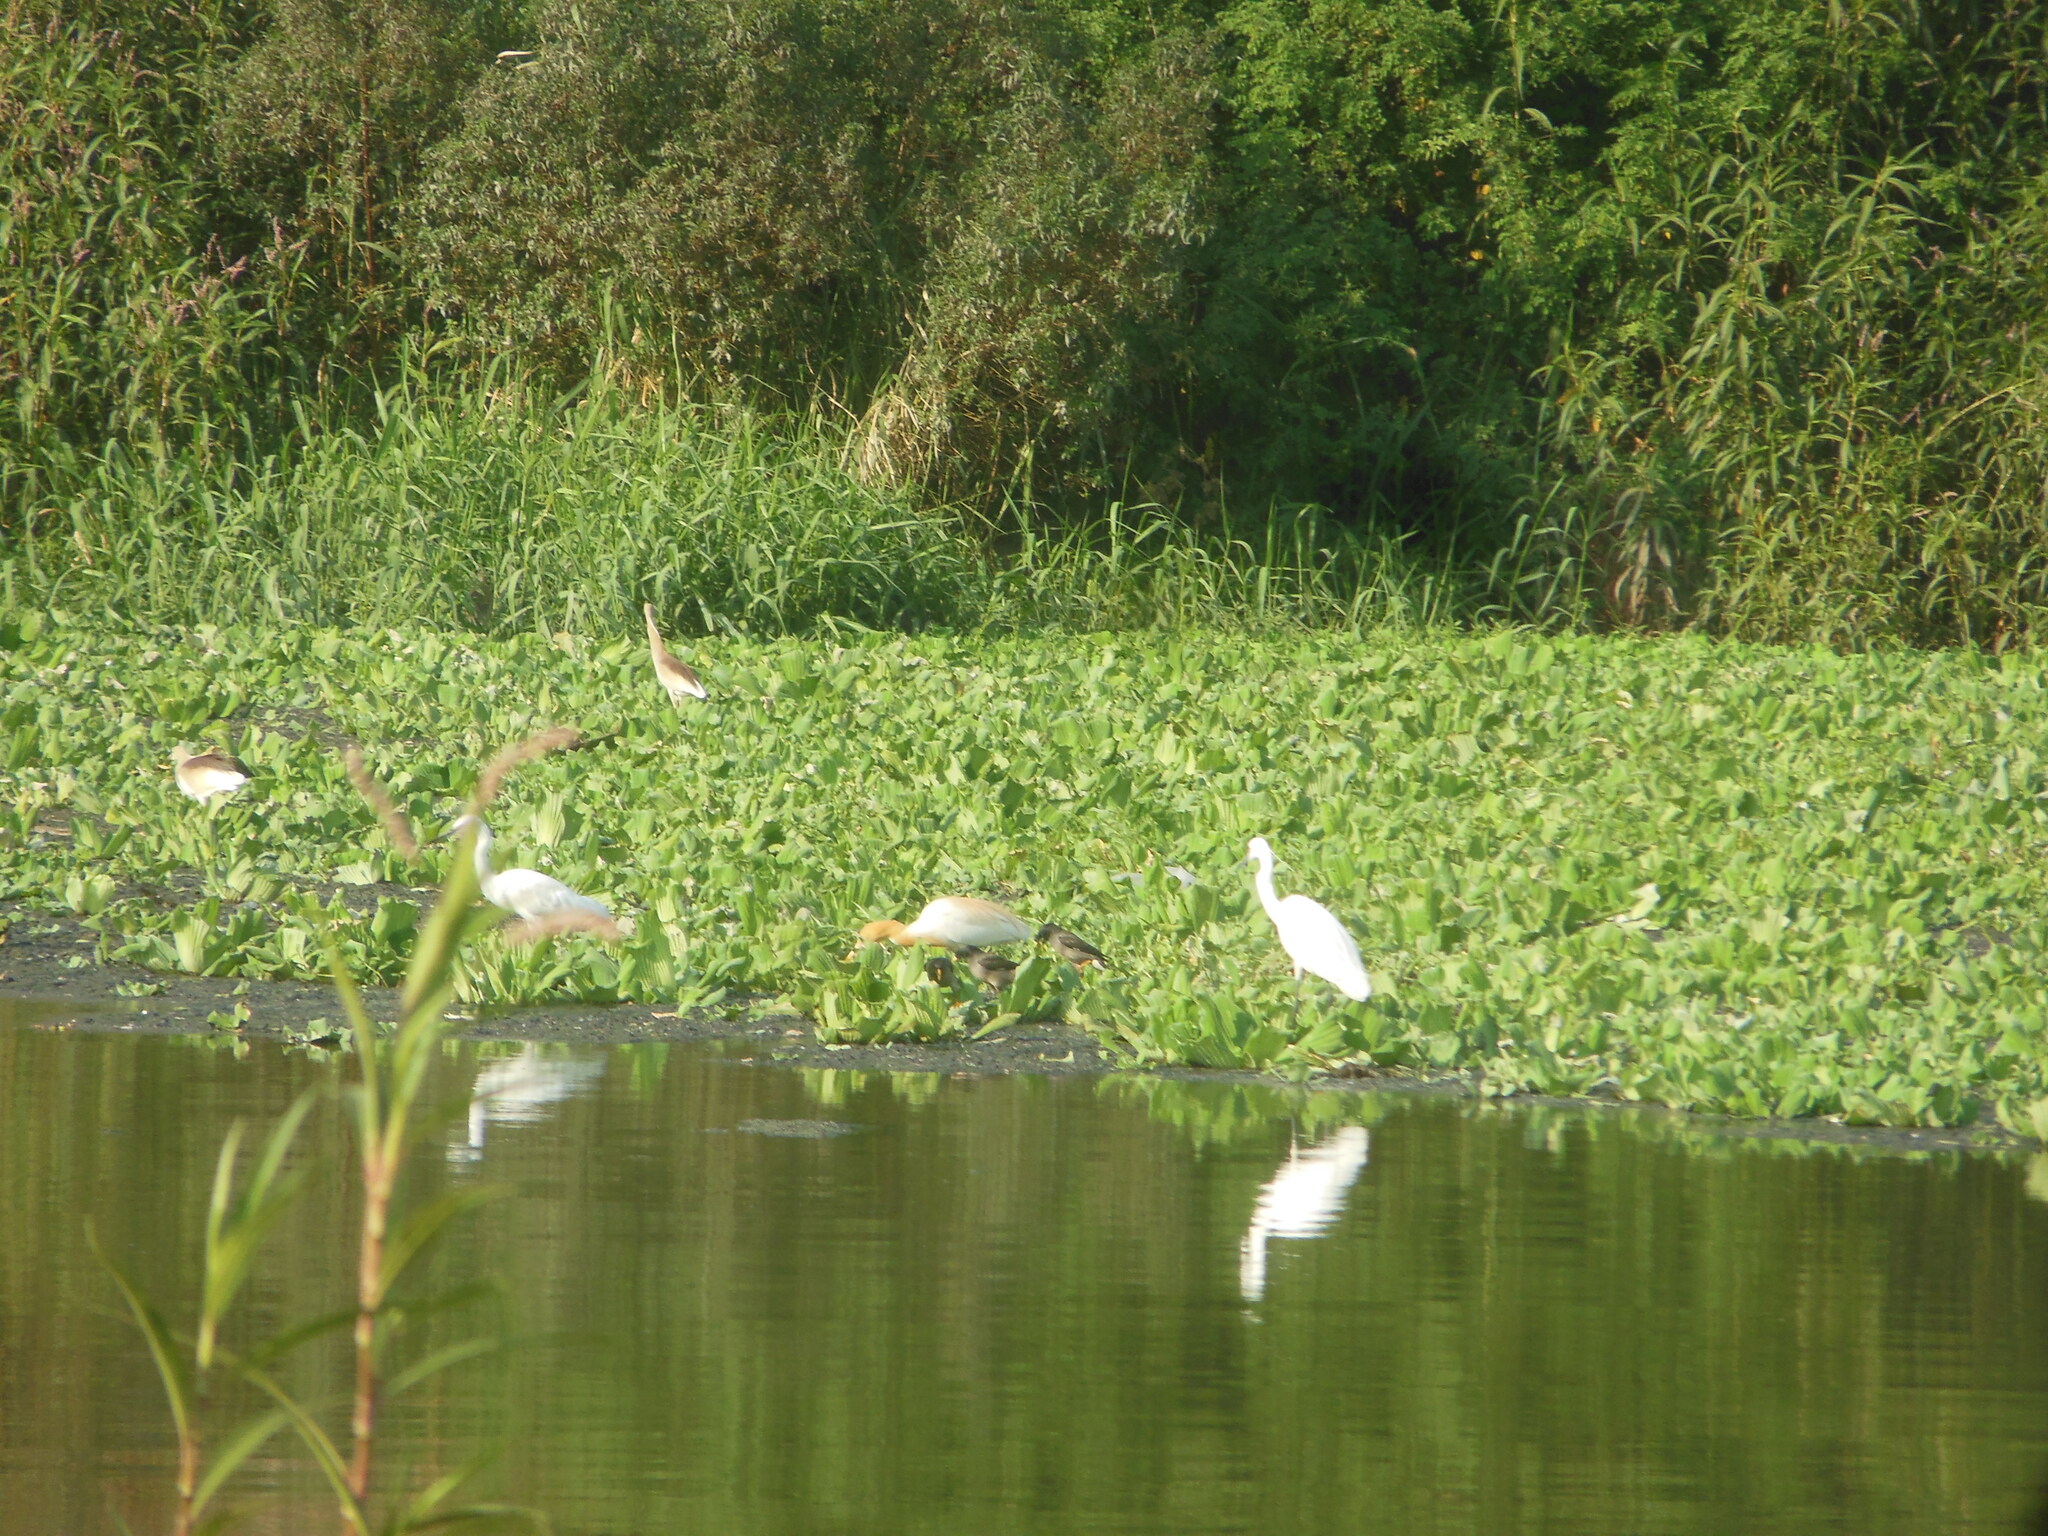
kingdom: Animalia
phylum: Chordata
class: Aves
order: Pelecaniformes
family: Ardeidae
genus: Egretta
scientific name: Egretta garzetta
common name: Little egret
